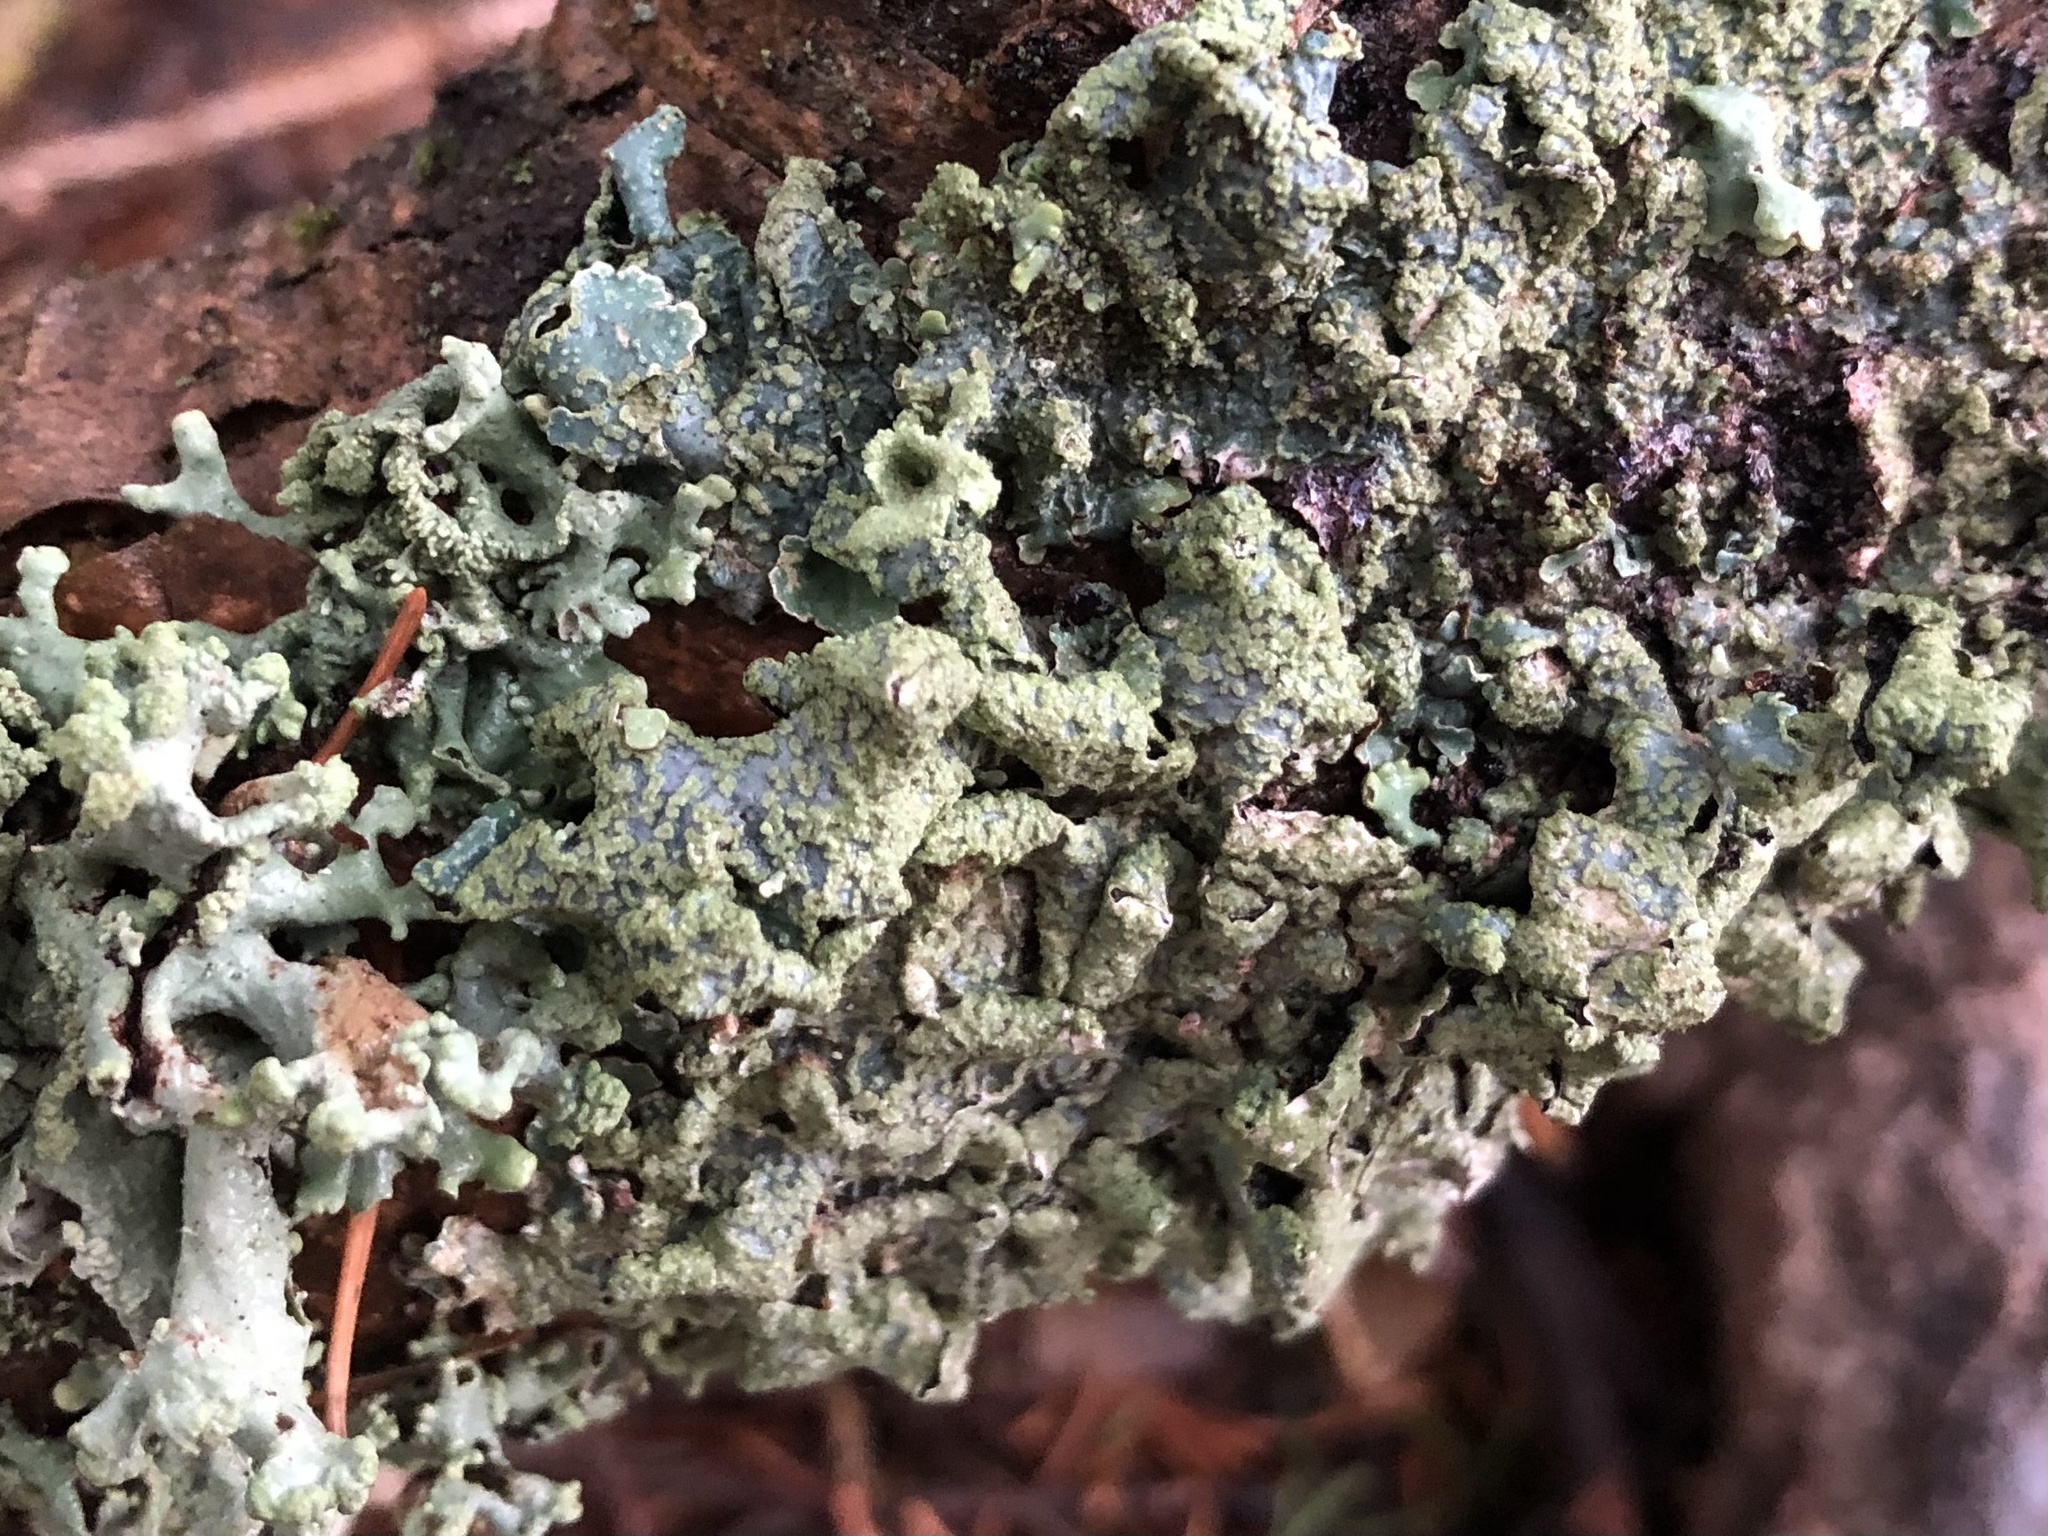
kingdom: Fungi
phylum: Ascomycota
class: Lecanoromycetes
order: Lecanorales
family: Parmeliaceae
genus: Hypogymnia
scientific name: Hypogymnia tubulosa
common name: Powder-headed tube lichen
